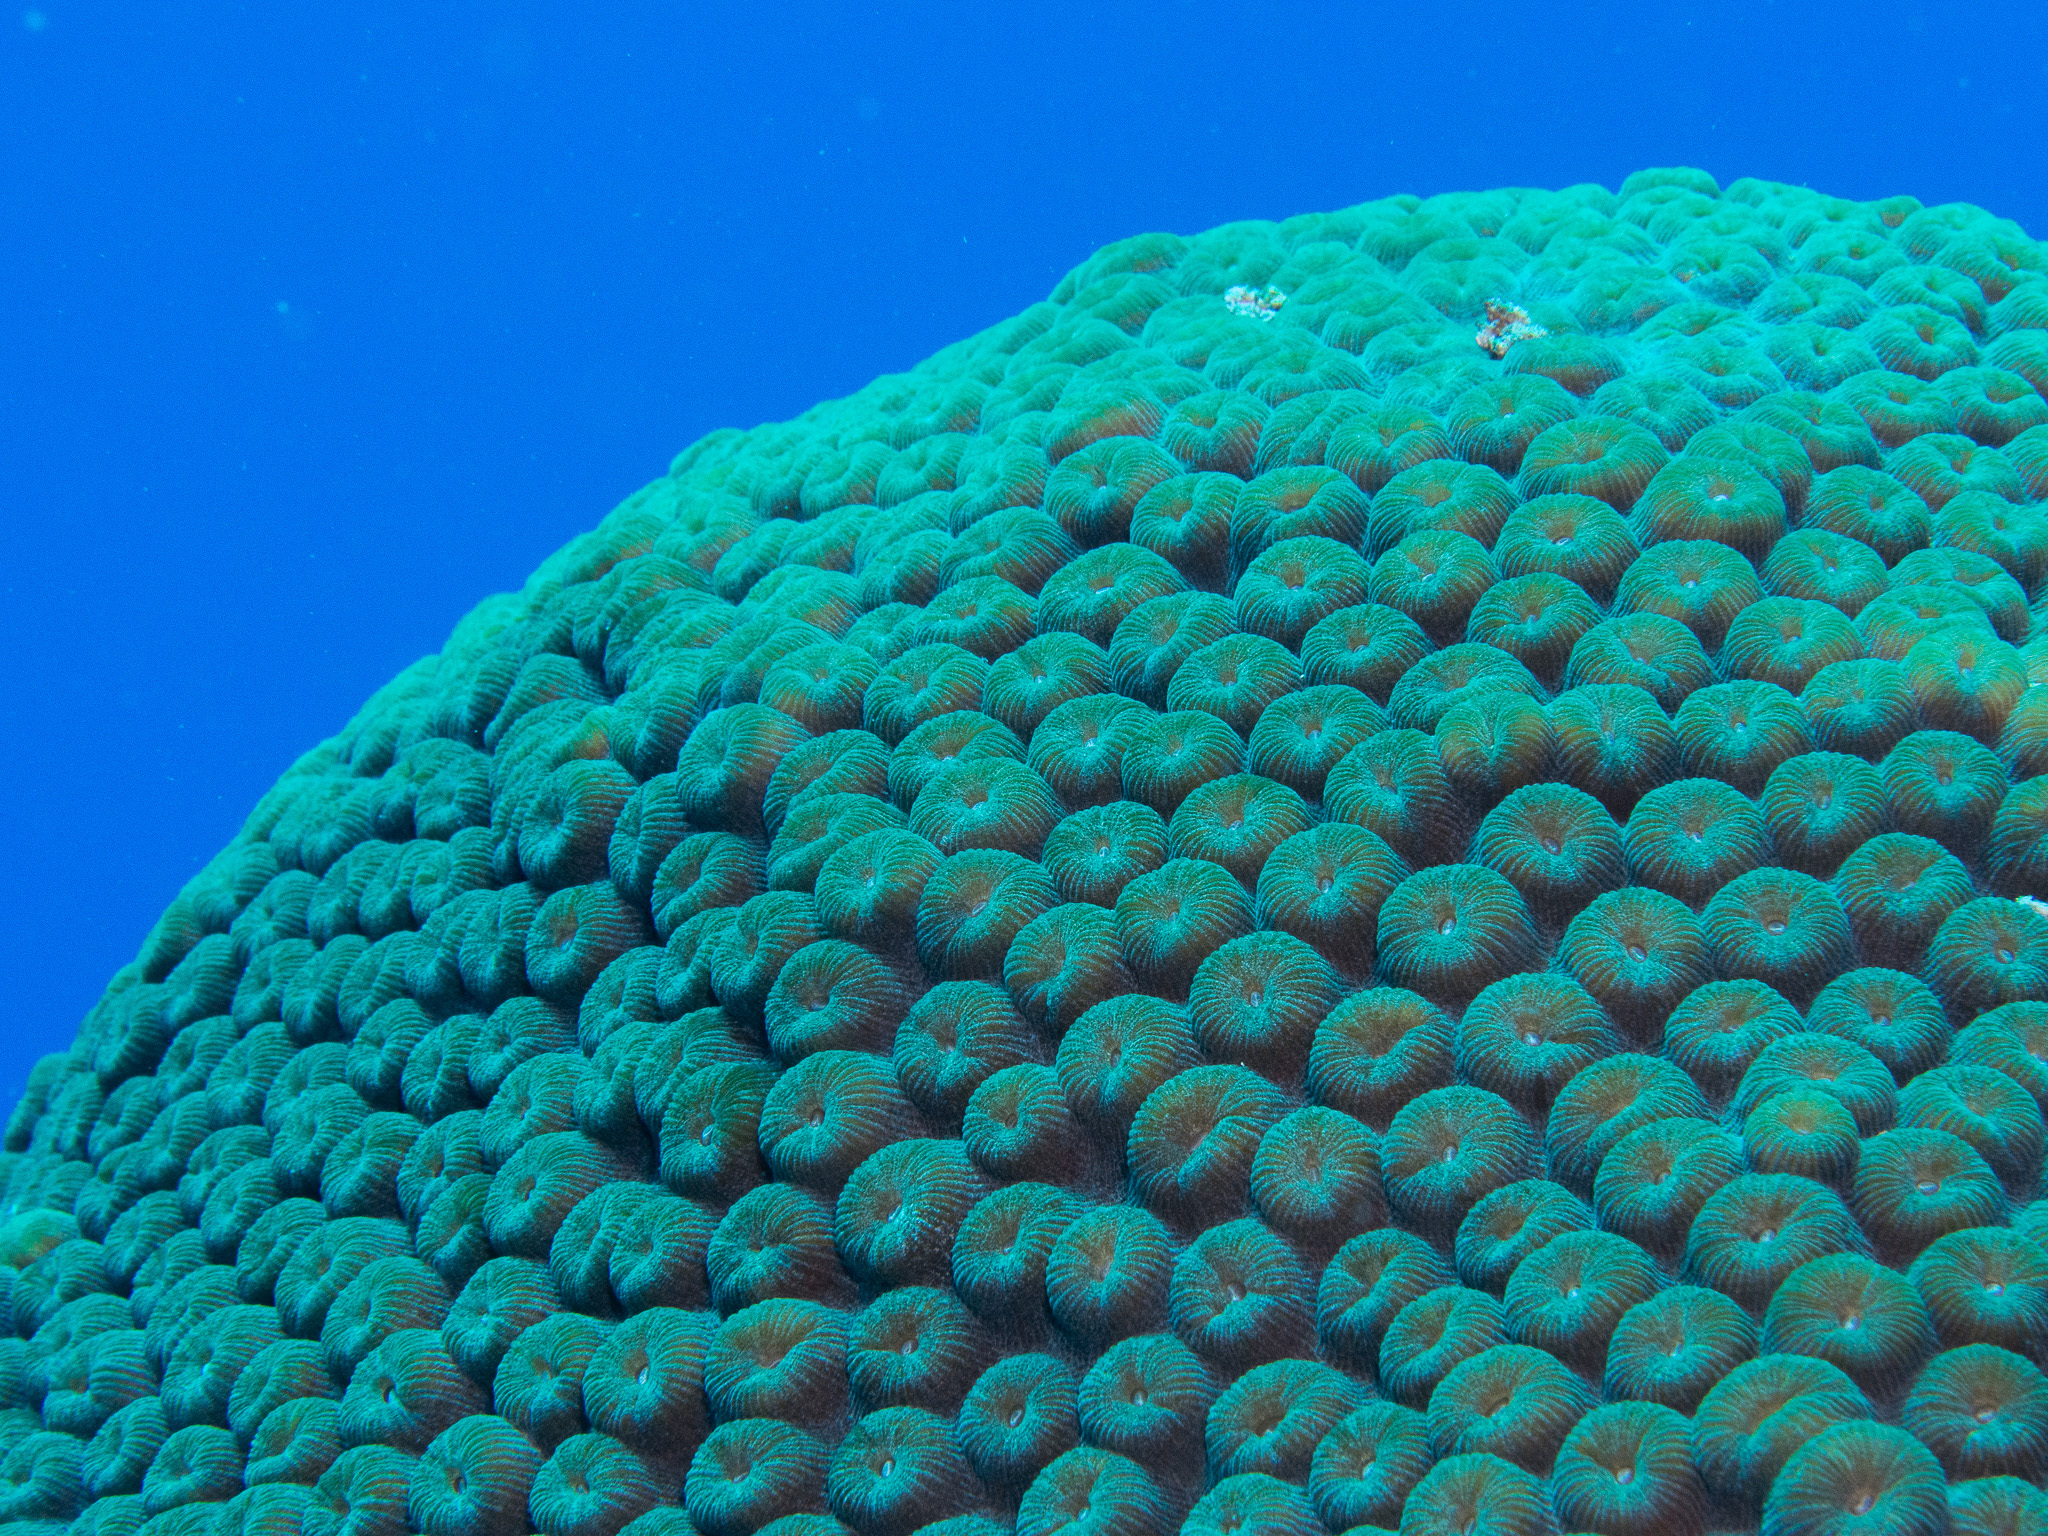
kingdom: Animalia
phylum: Cnidaria
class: Anthozoa
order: Scleractinia
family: Montastraeidae
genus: Montastraea
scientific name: Montastraea cavernosa
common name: Great star coral
